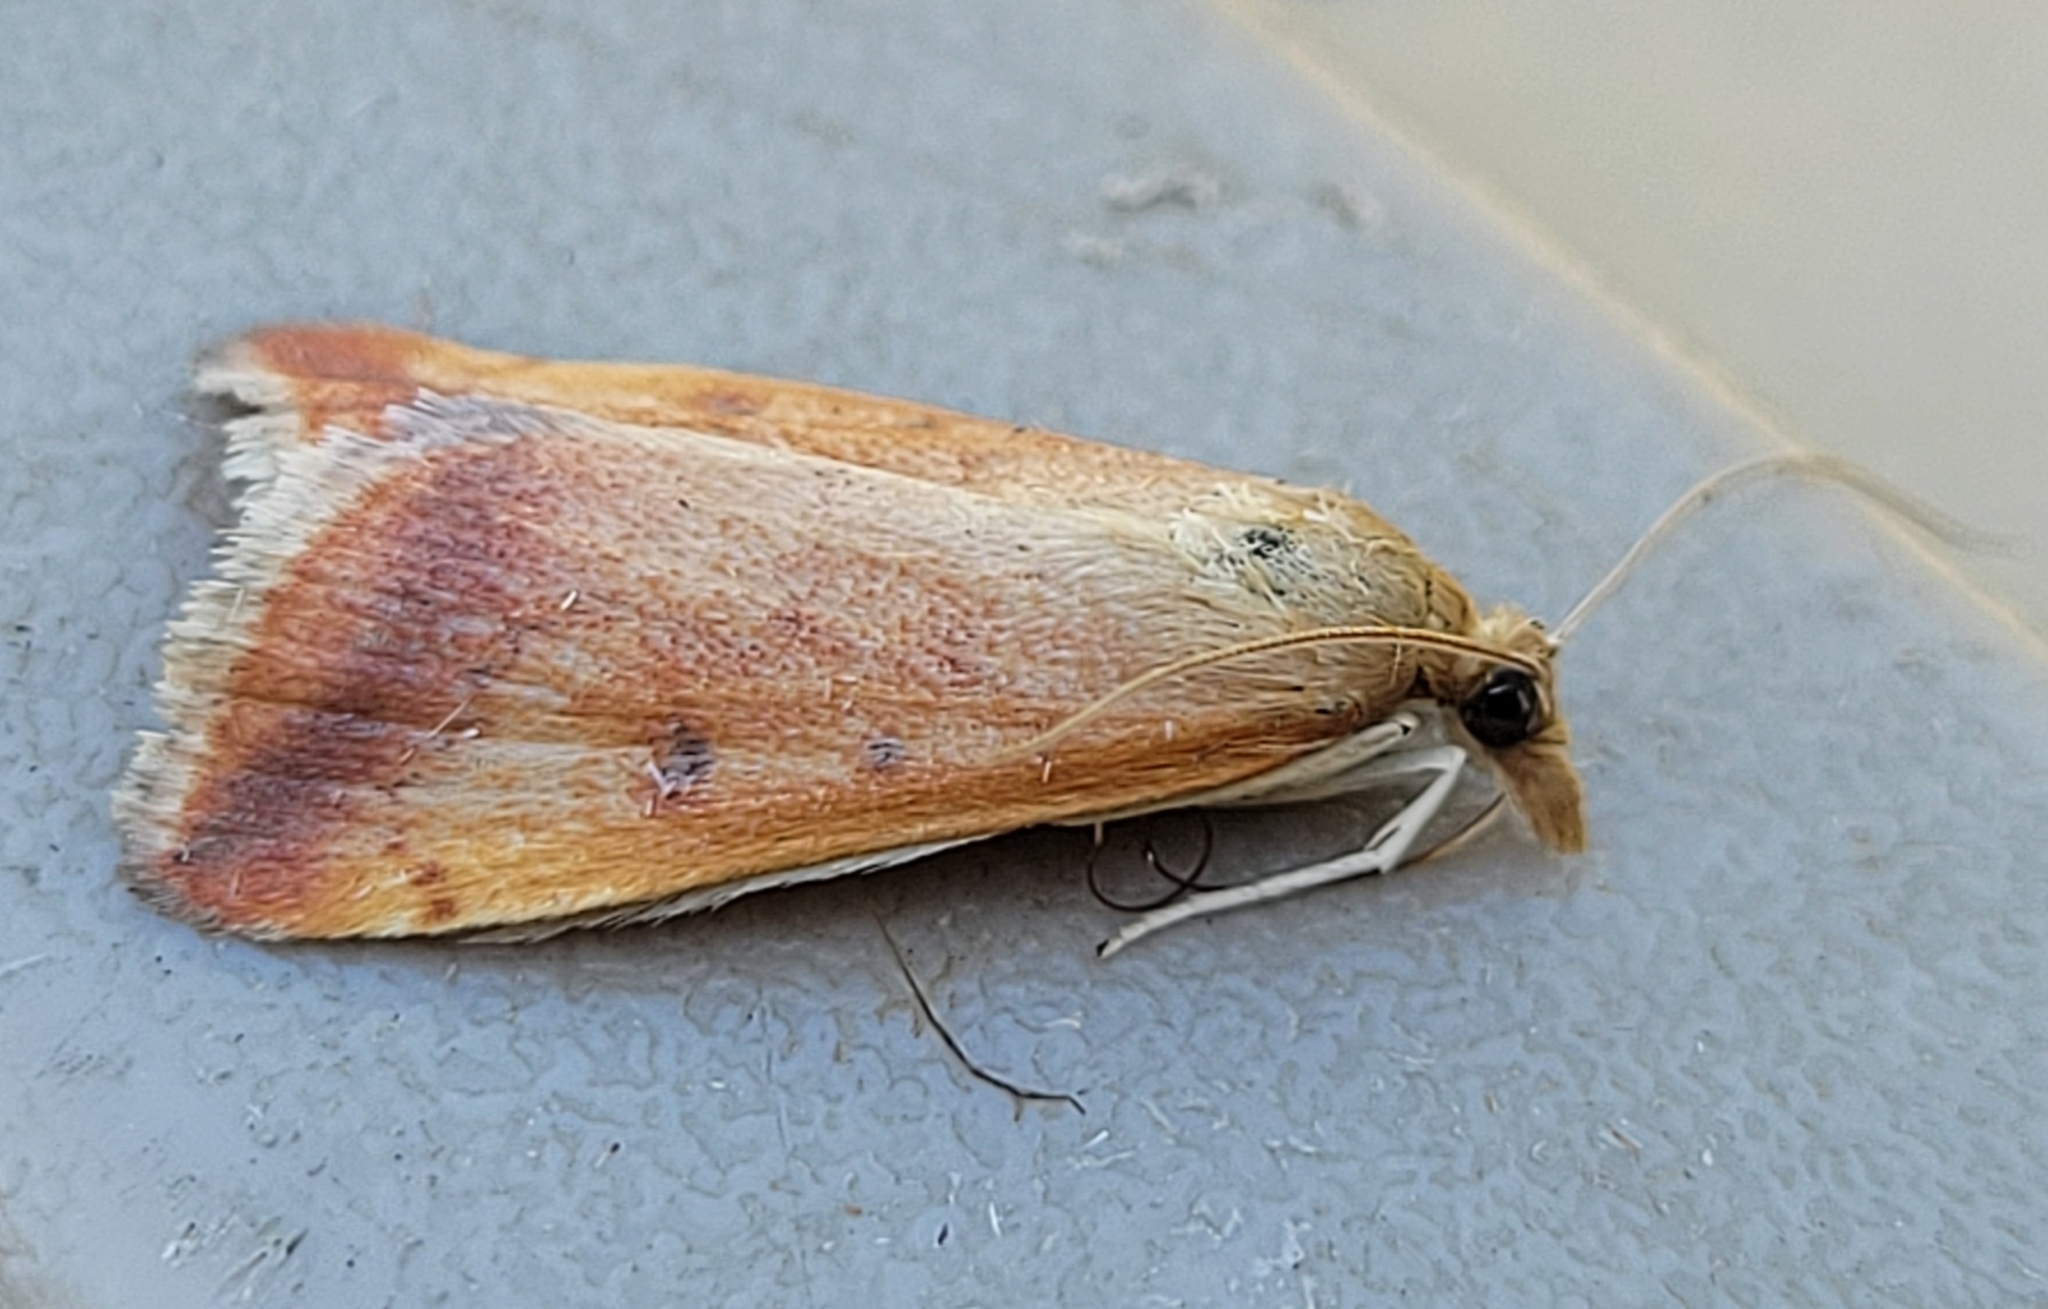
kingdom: Animalia
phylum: Arthropoda
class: Insecta
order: Lepidoptera
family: Crambidae
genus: Pyrausta
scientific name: Pyrausta socialis
